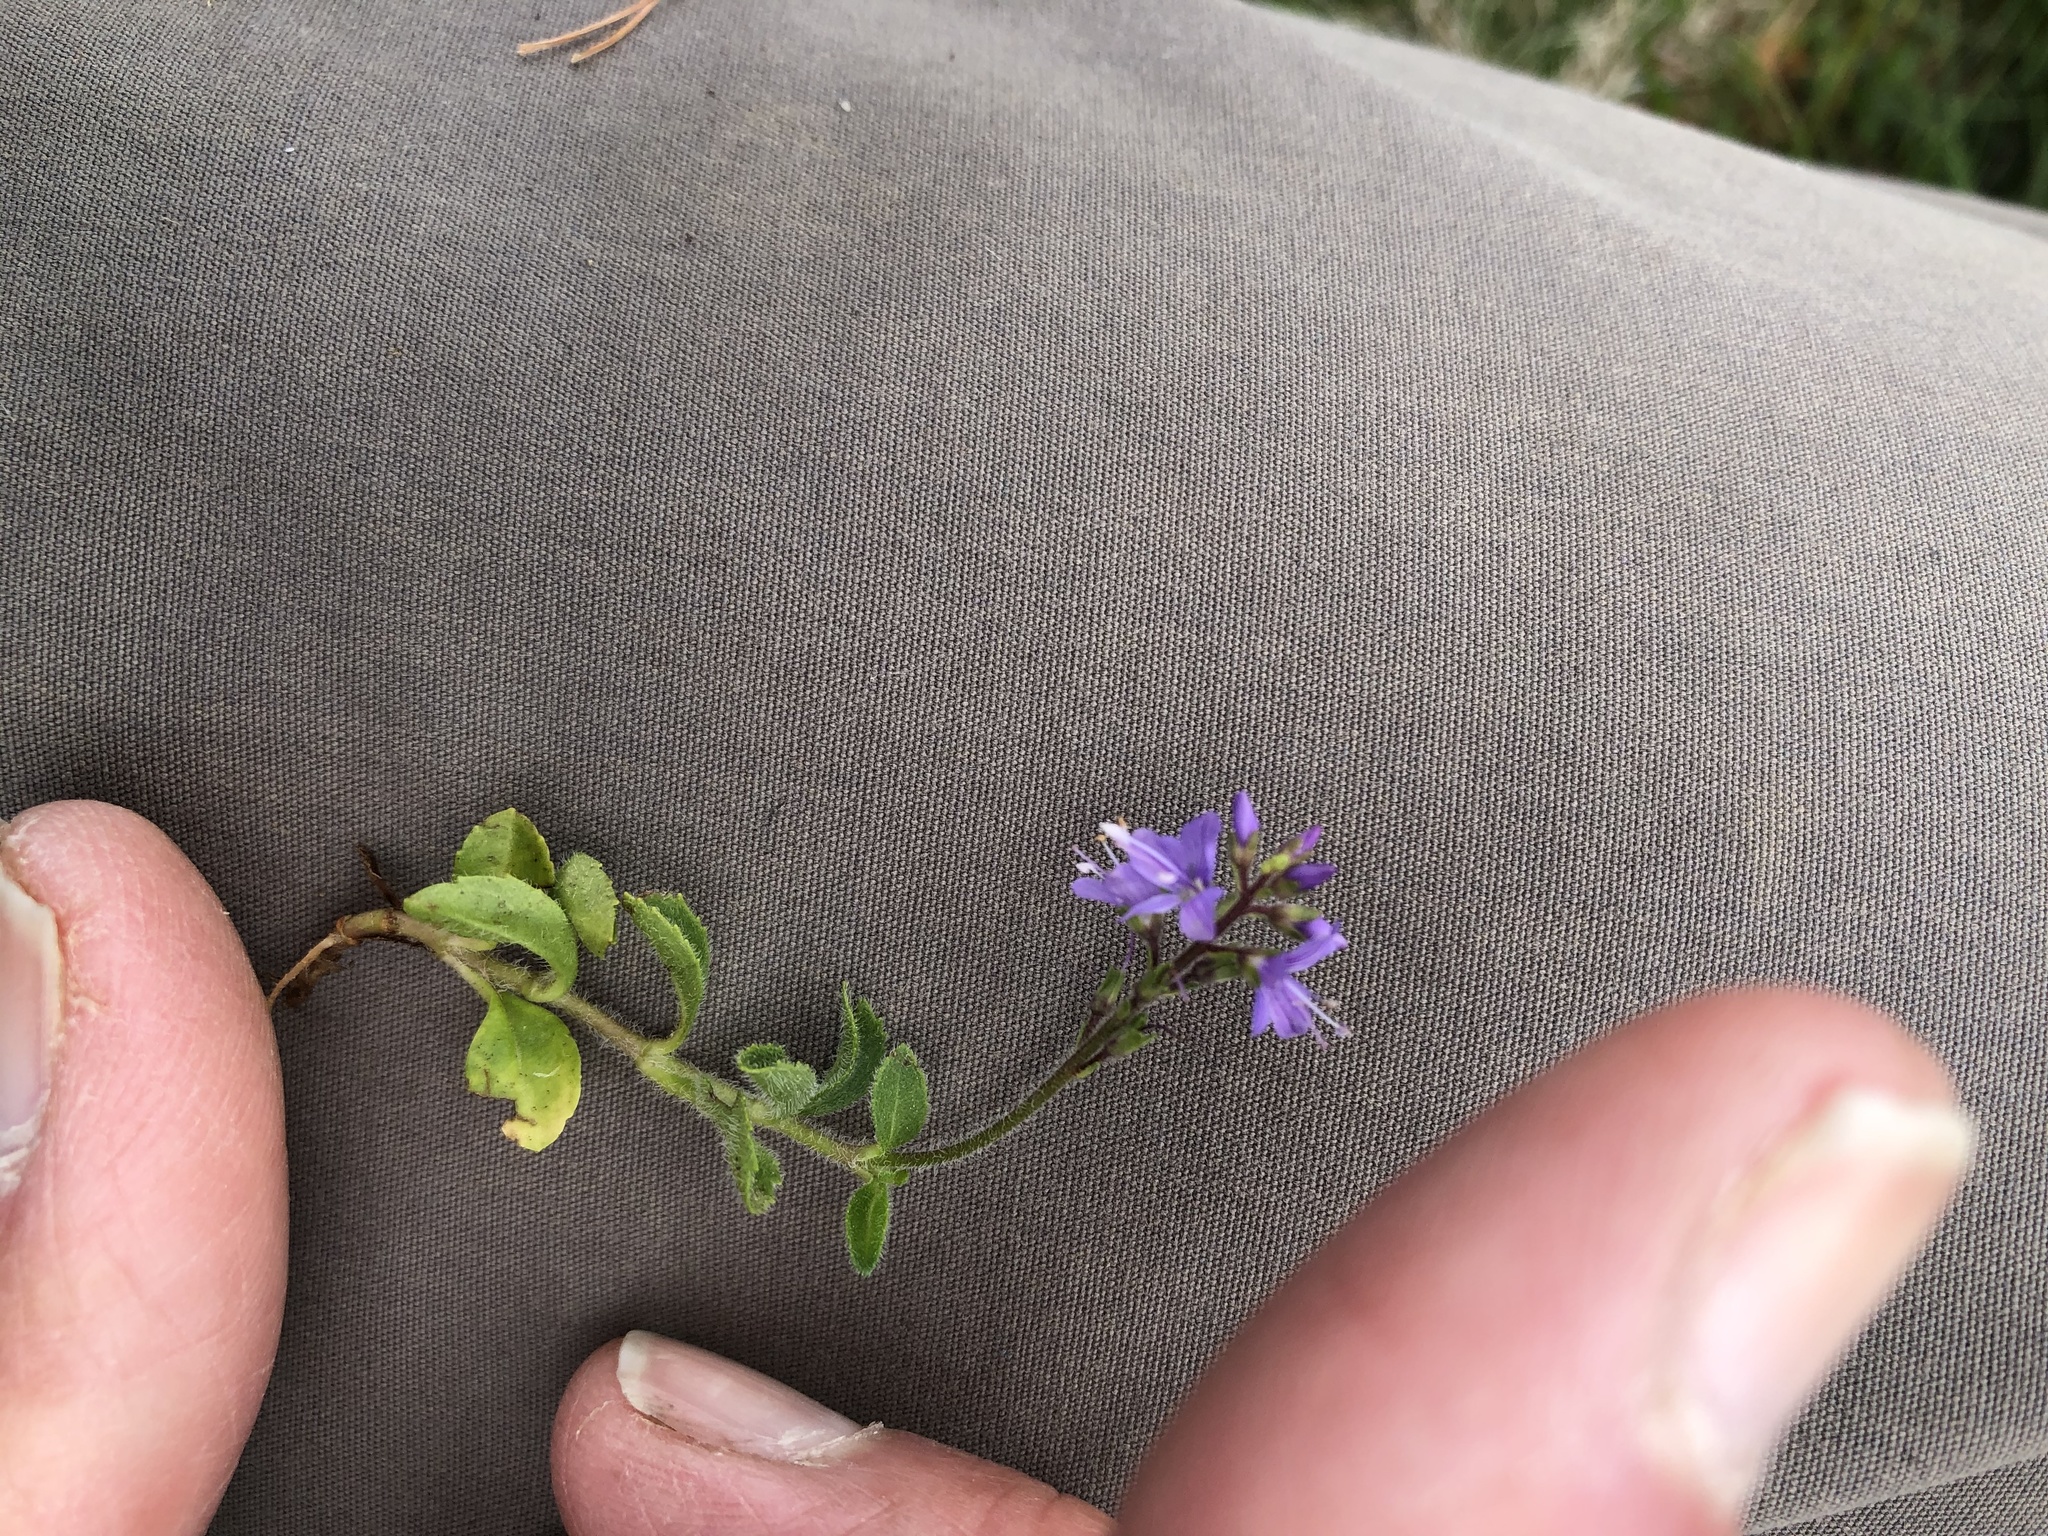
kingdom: Plantae
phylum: Tracheophyta
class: Magnoliopsida
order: Lamiales
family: Plantaginaceae
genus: Veronica
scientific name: Veronica officinalis
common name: Common speedwell
